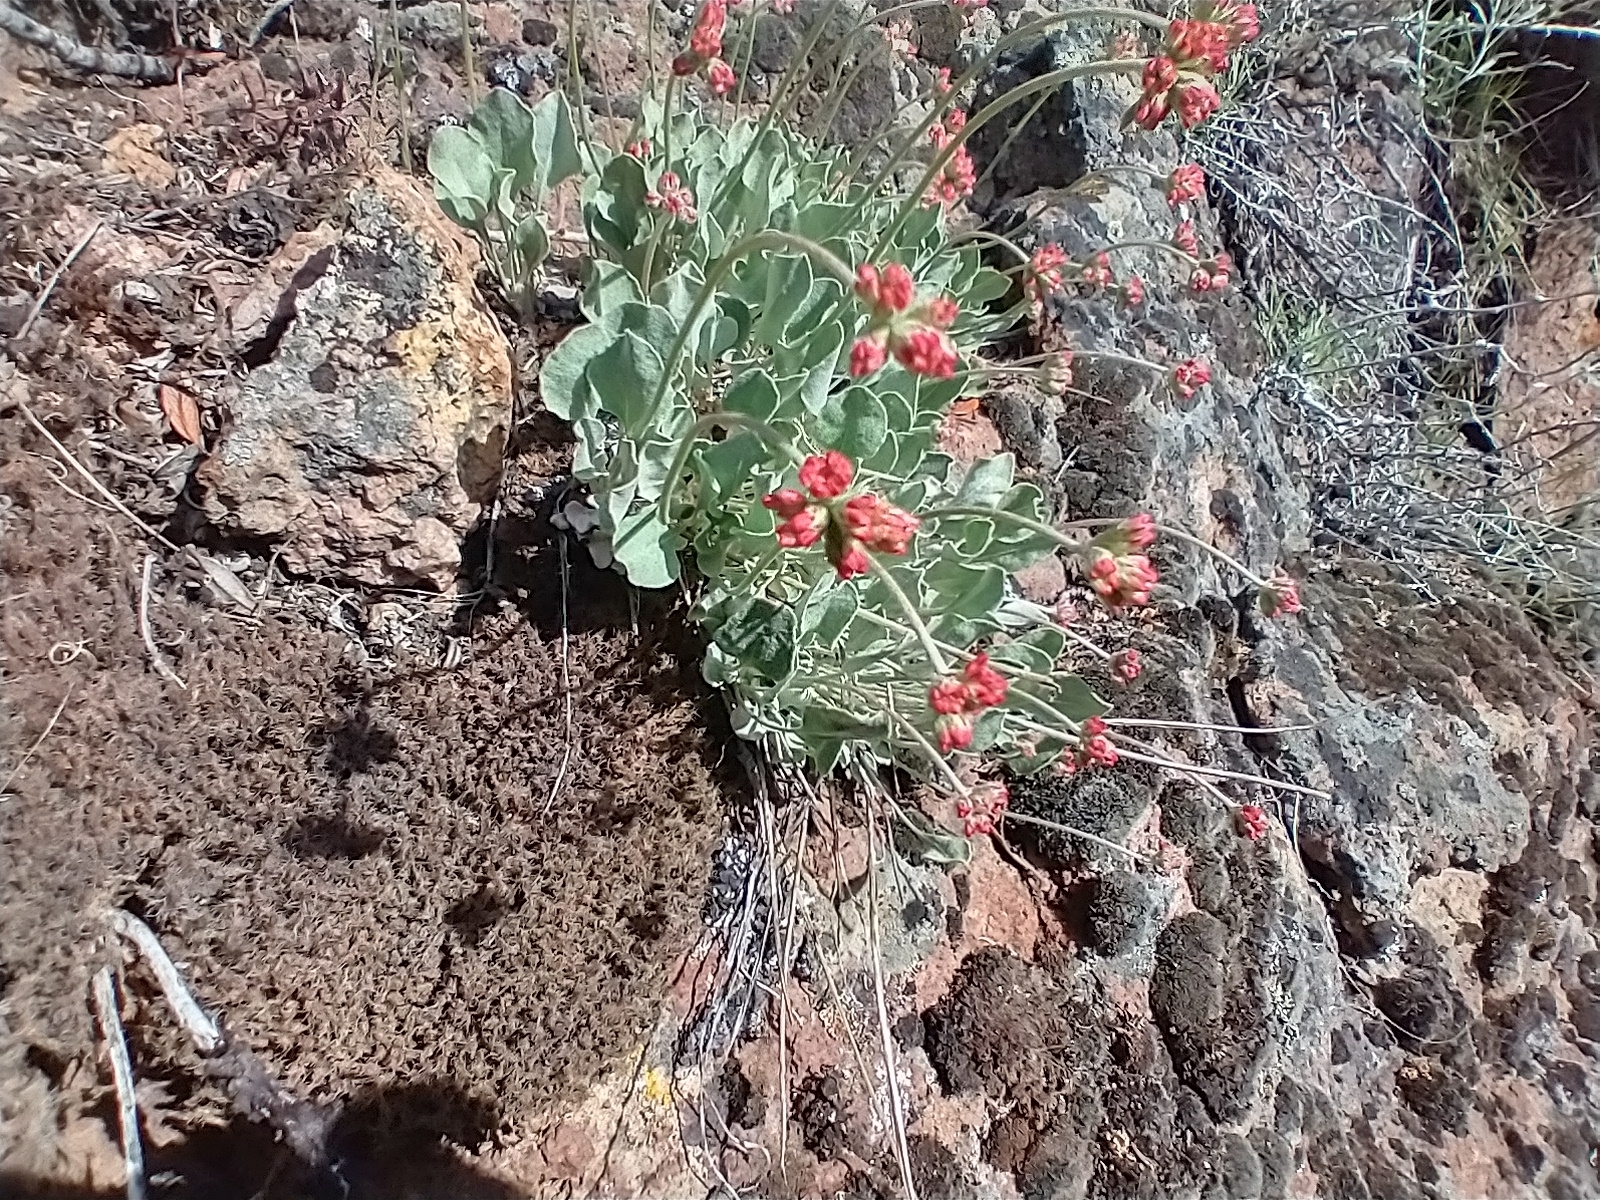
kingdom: Plantae
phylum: Tracheophyta
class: Magnoliopsida
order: Caryophyllales
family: Polygonaceae
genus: Eriogonum
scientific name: Eriogonum ovalifolium
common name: Cushion buckwheat
